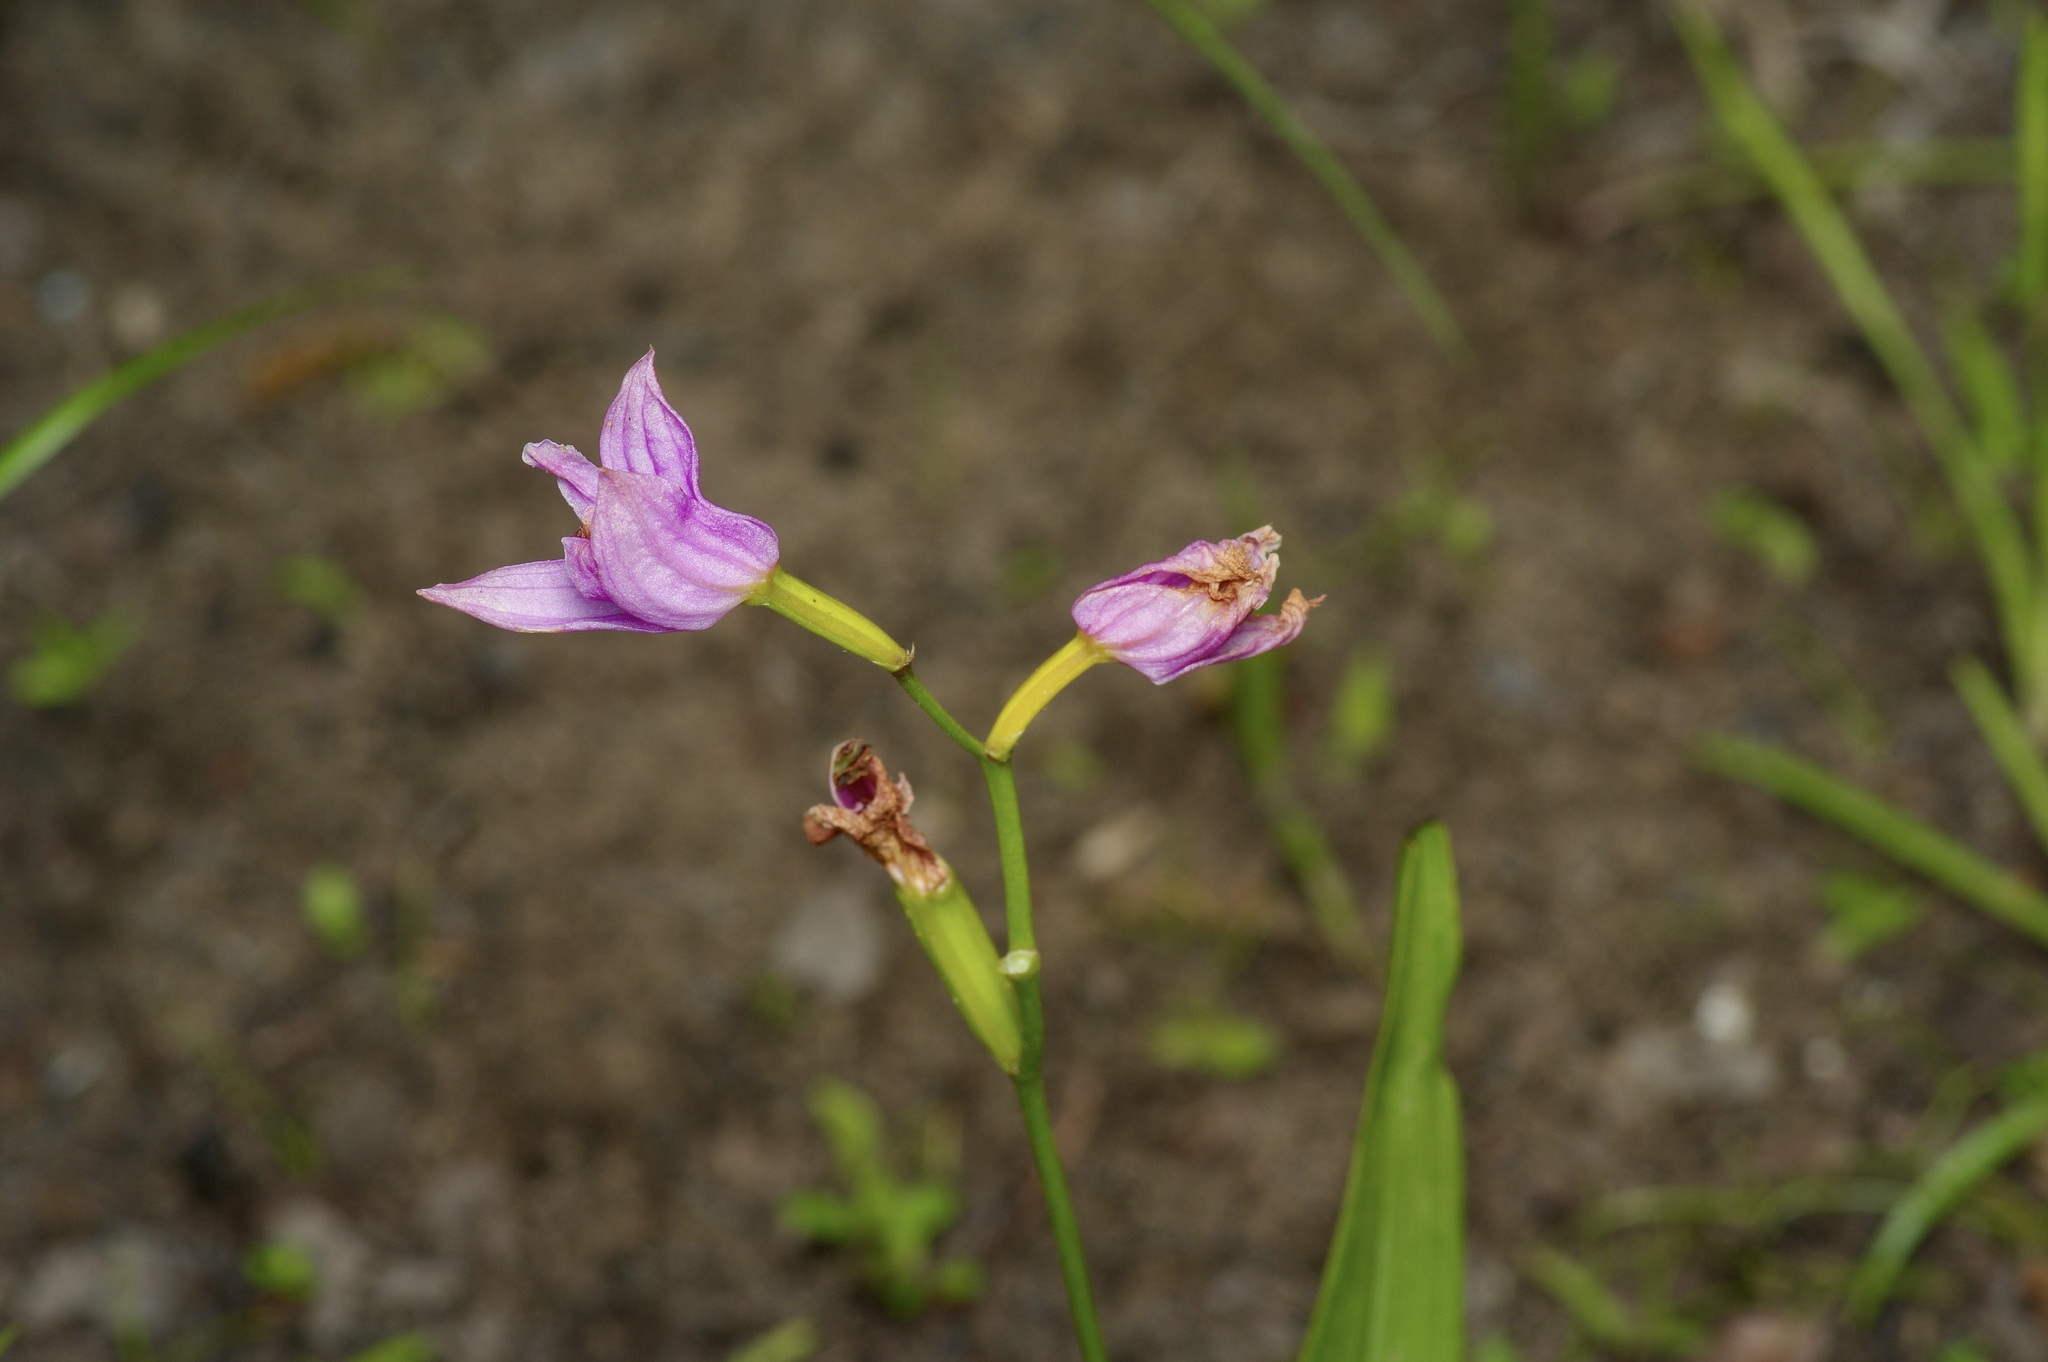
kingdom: Plantae
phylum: Tracheophyta
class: Liliopsida
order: Asparagales
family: Orchidaceae
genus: Calopogon
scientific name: Calopogon oklahomensis
